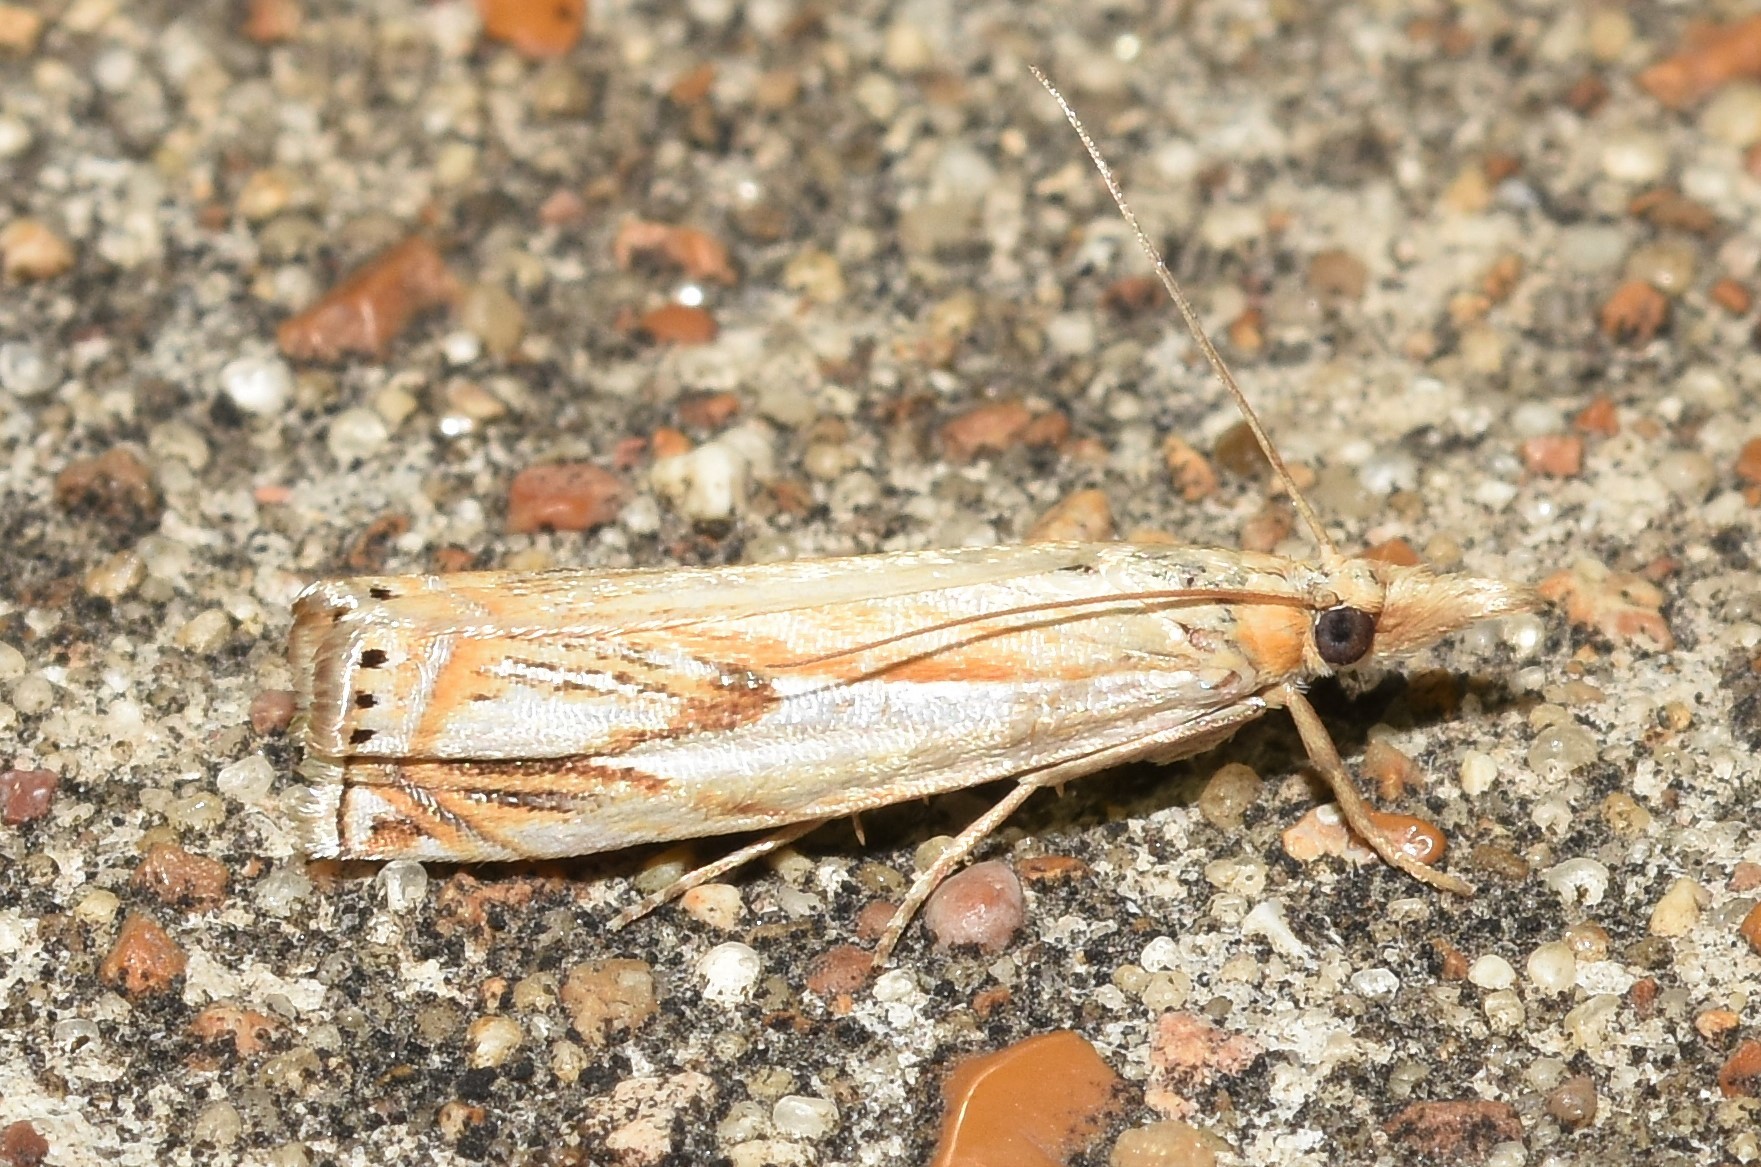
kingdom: Animalia
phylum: Arthropoda
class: Insecta
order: Lepidoptera
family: Crambidae
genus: Crambus
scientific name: Crambus agitatellus
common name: Double-banded grass-veneer
